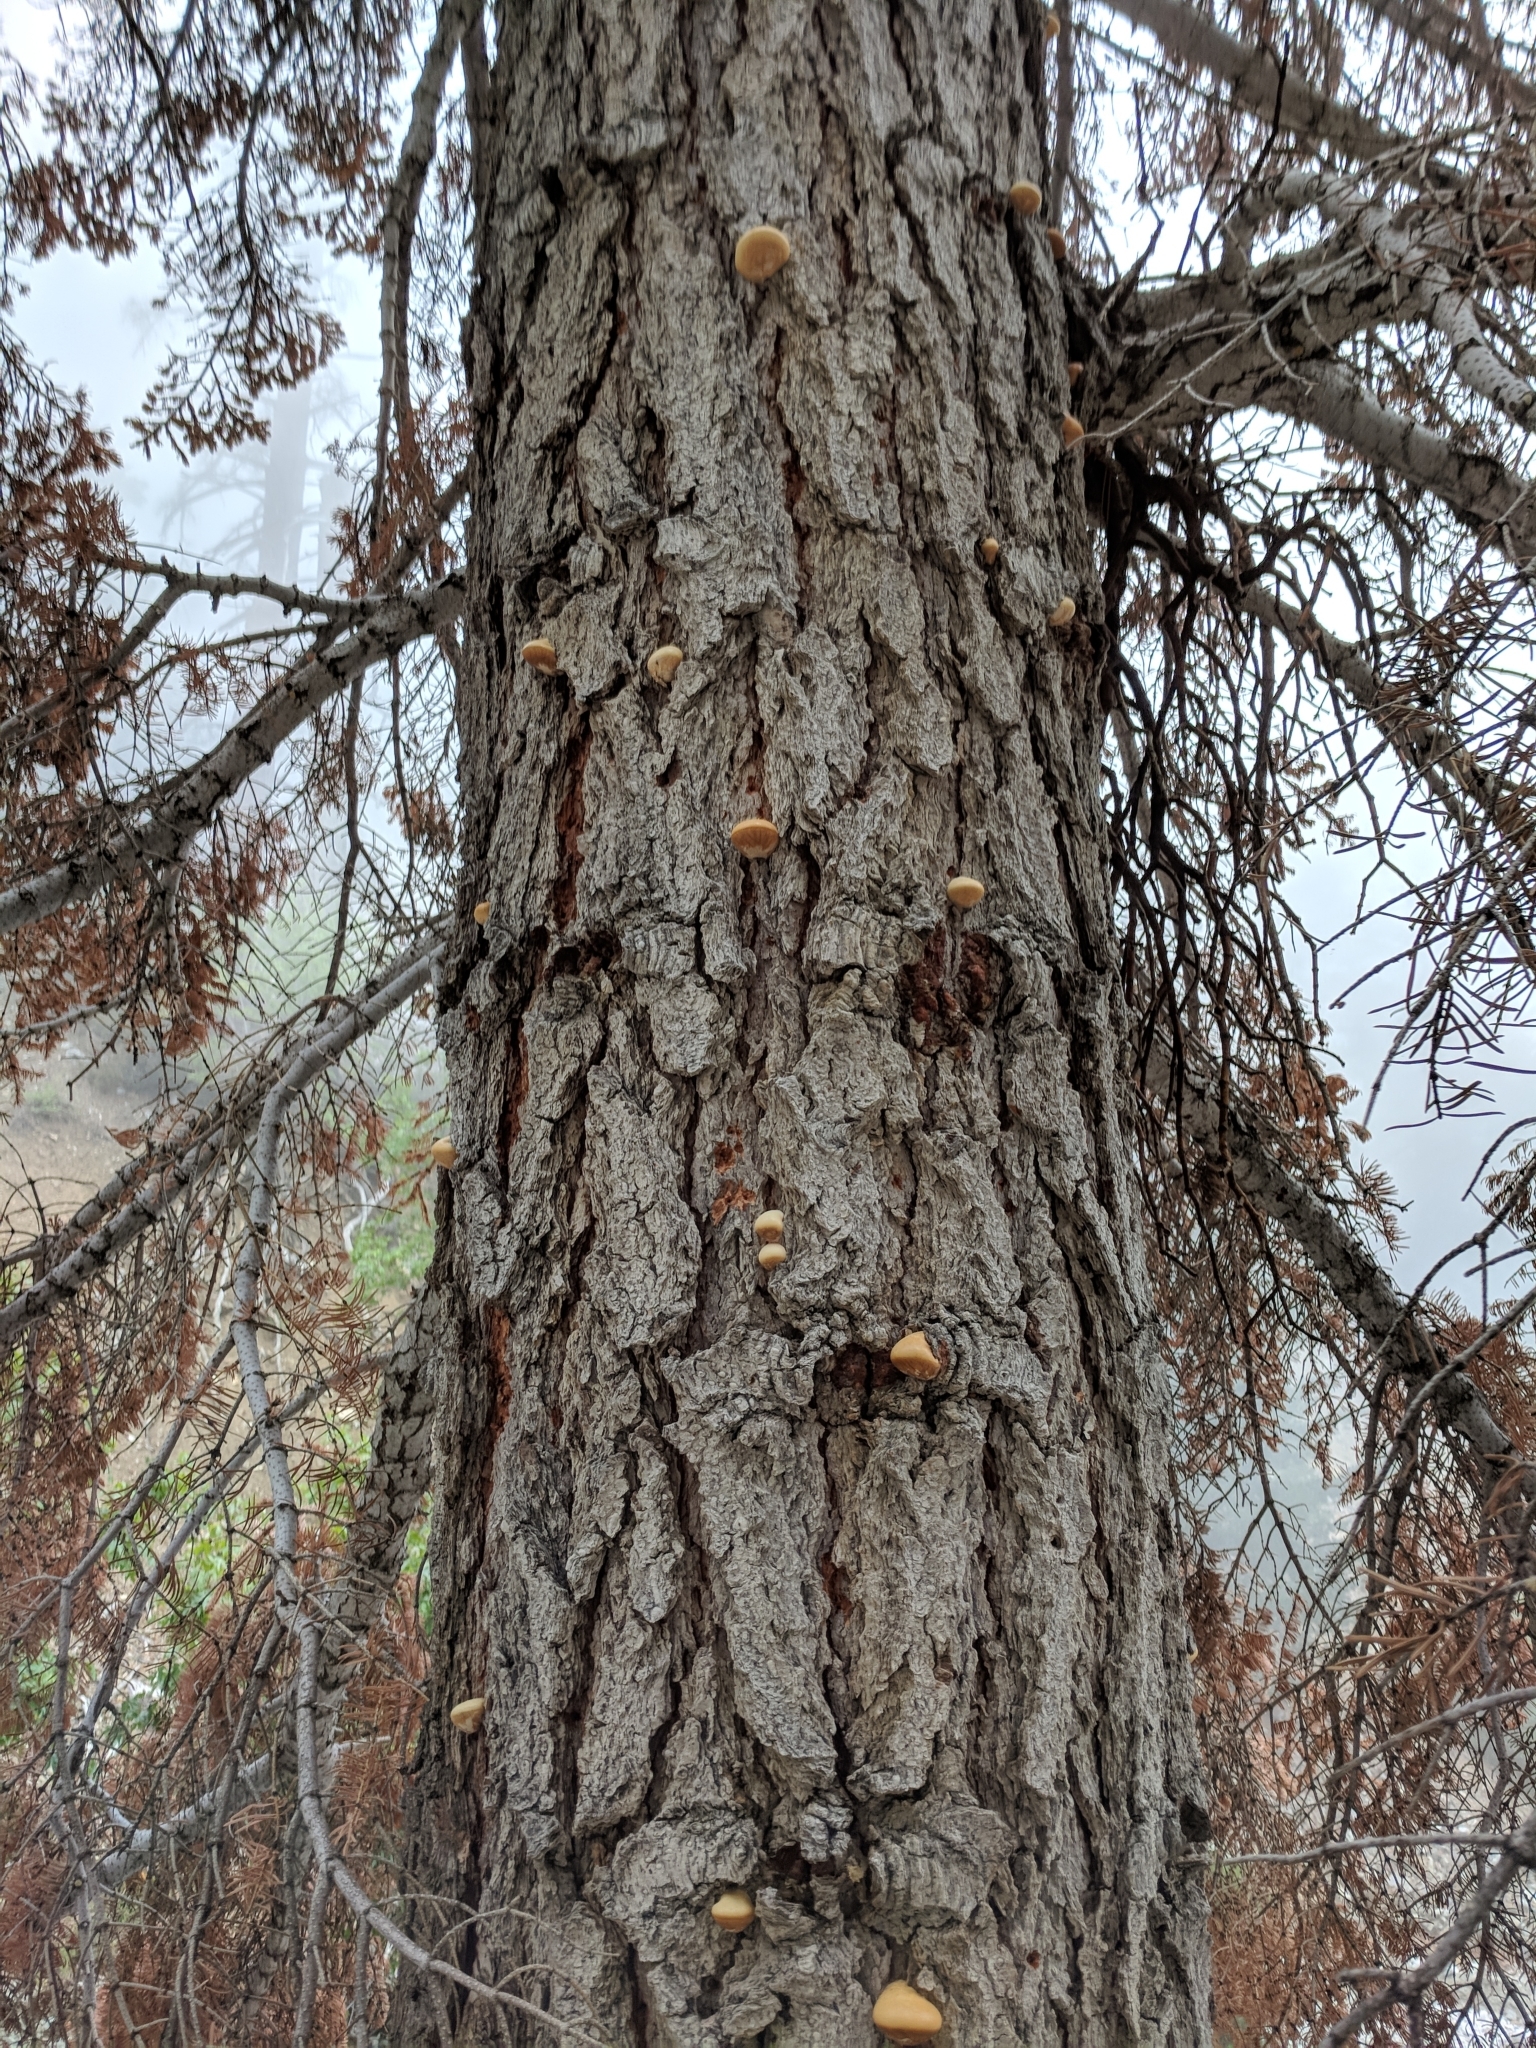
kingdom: Fungi
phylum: Basidiomycota
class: Agaricomycetes
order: Polyporales
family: Polyporaceae
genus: Cryptoporus
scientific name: Cryptoporus volvatus
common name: Veiled polypore
